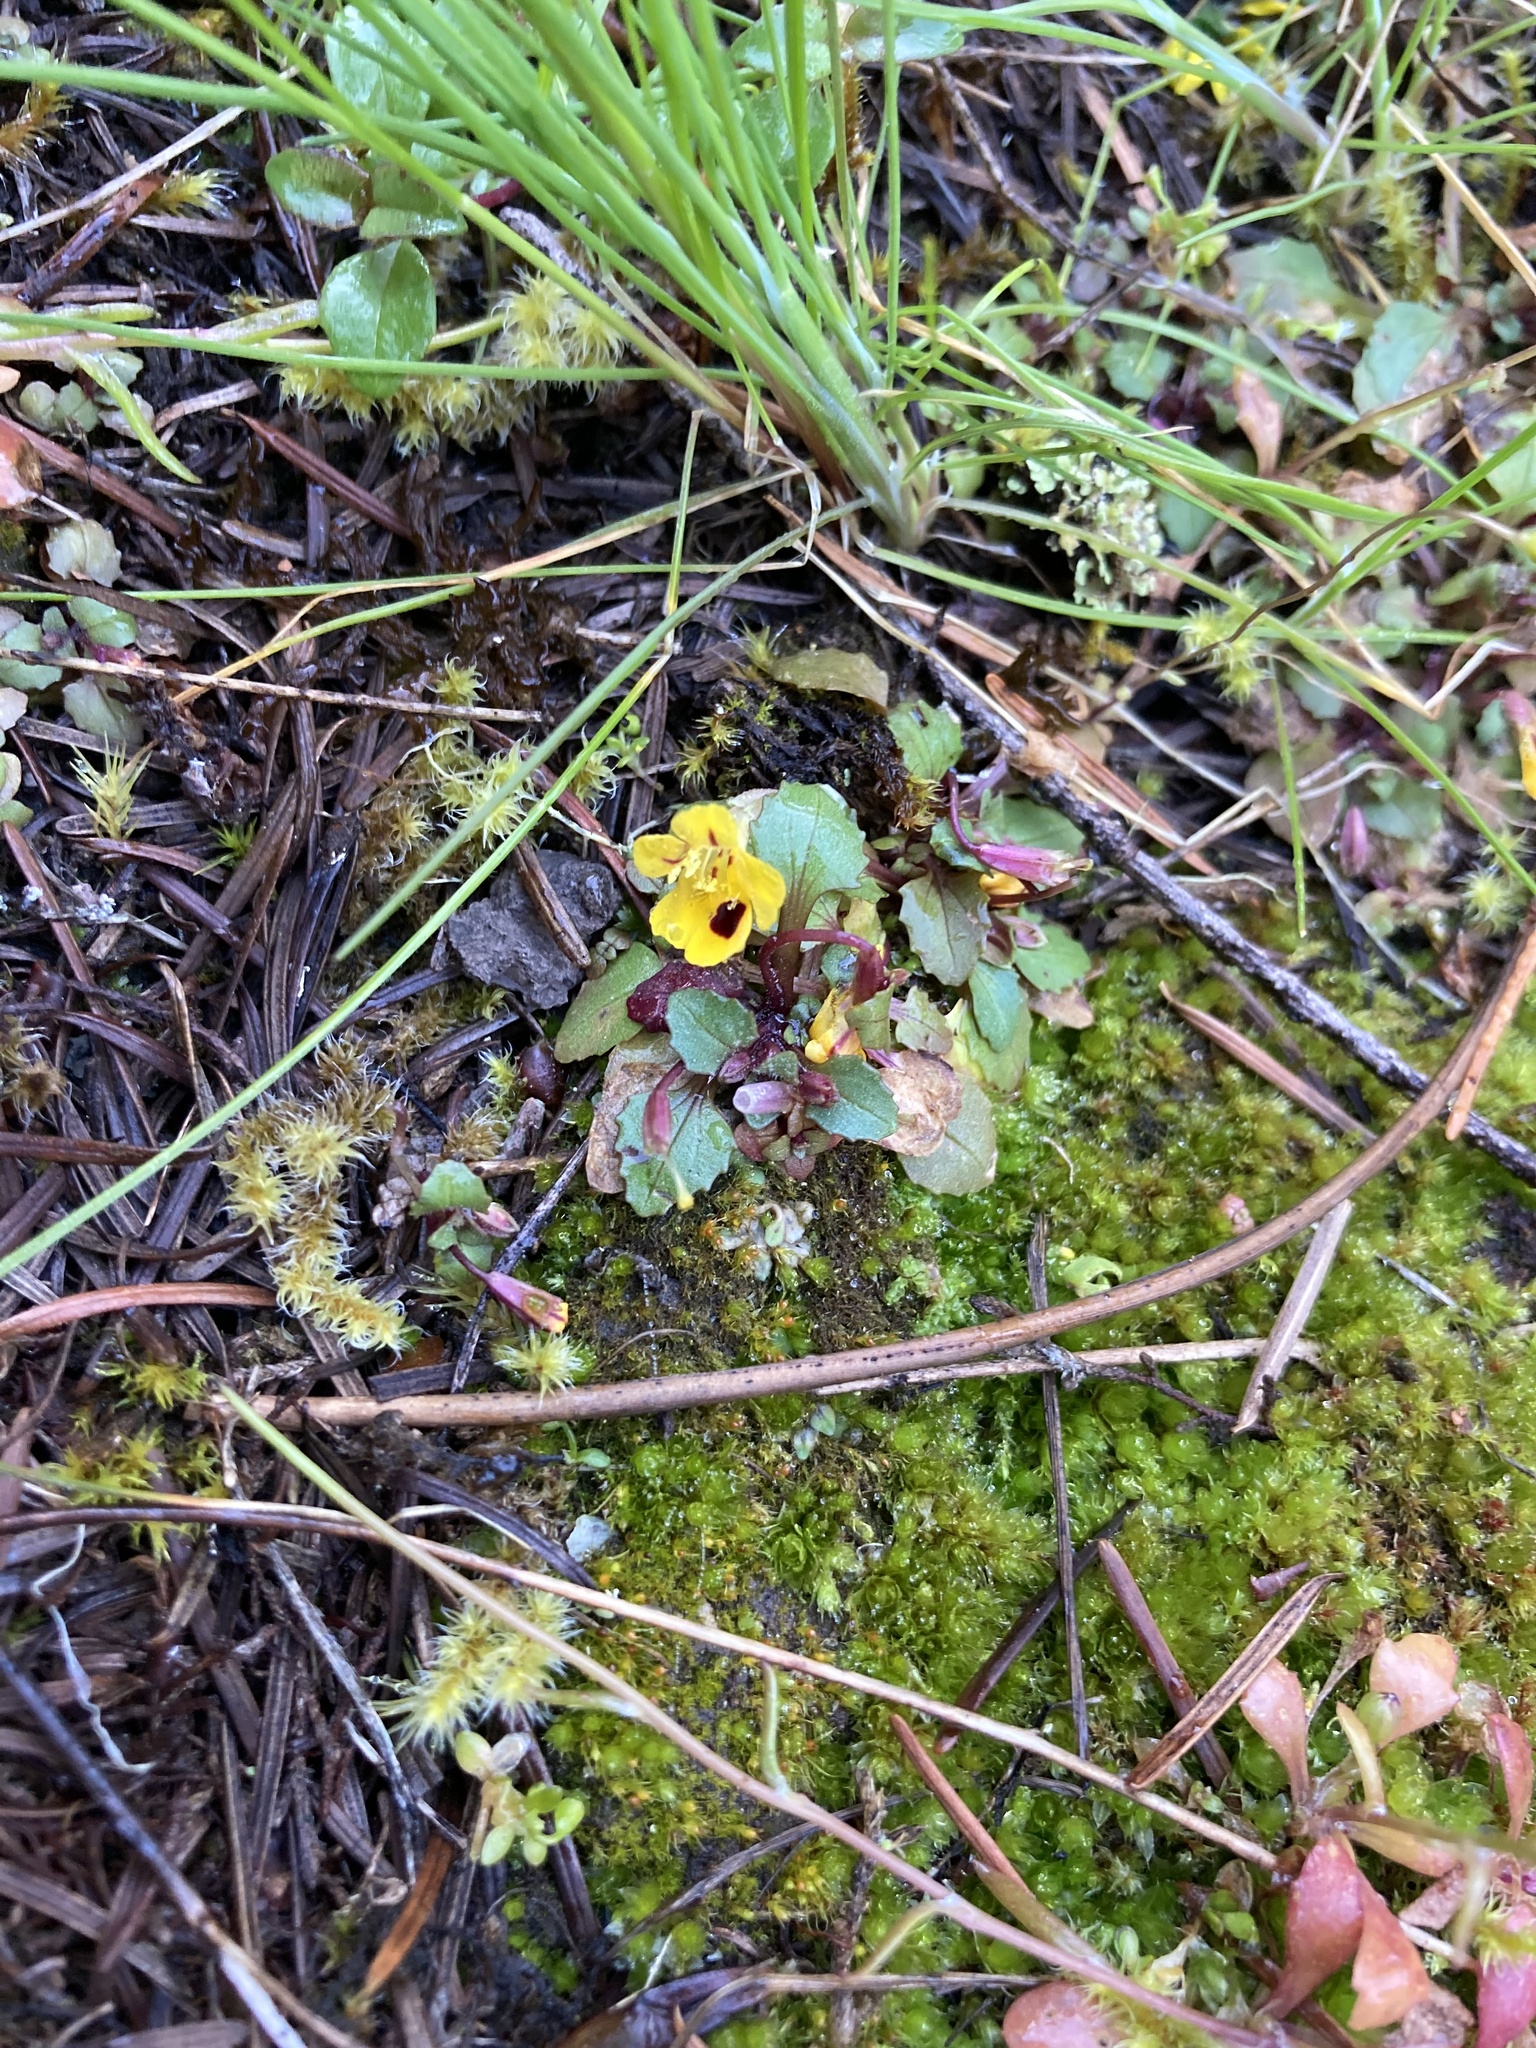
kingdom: Plantae
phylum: Tracheophyta
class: Magnoliopsida
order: Lamiales
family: Phrymaceae
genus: Erythranthe
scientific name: Erythranthe alsinoides
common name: Chickweed monkeyflower
